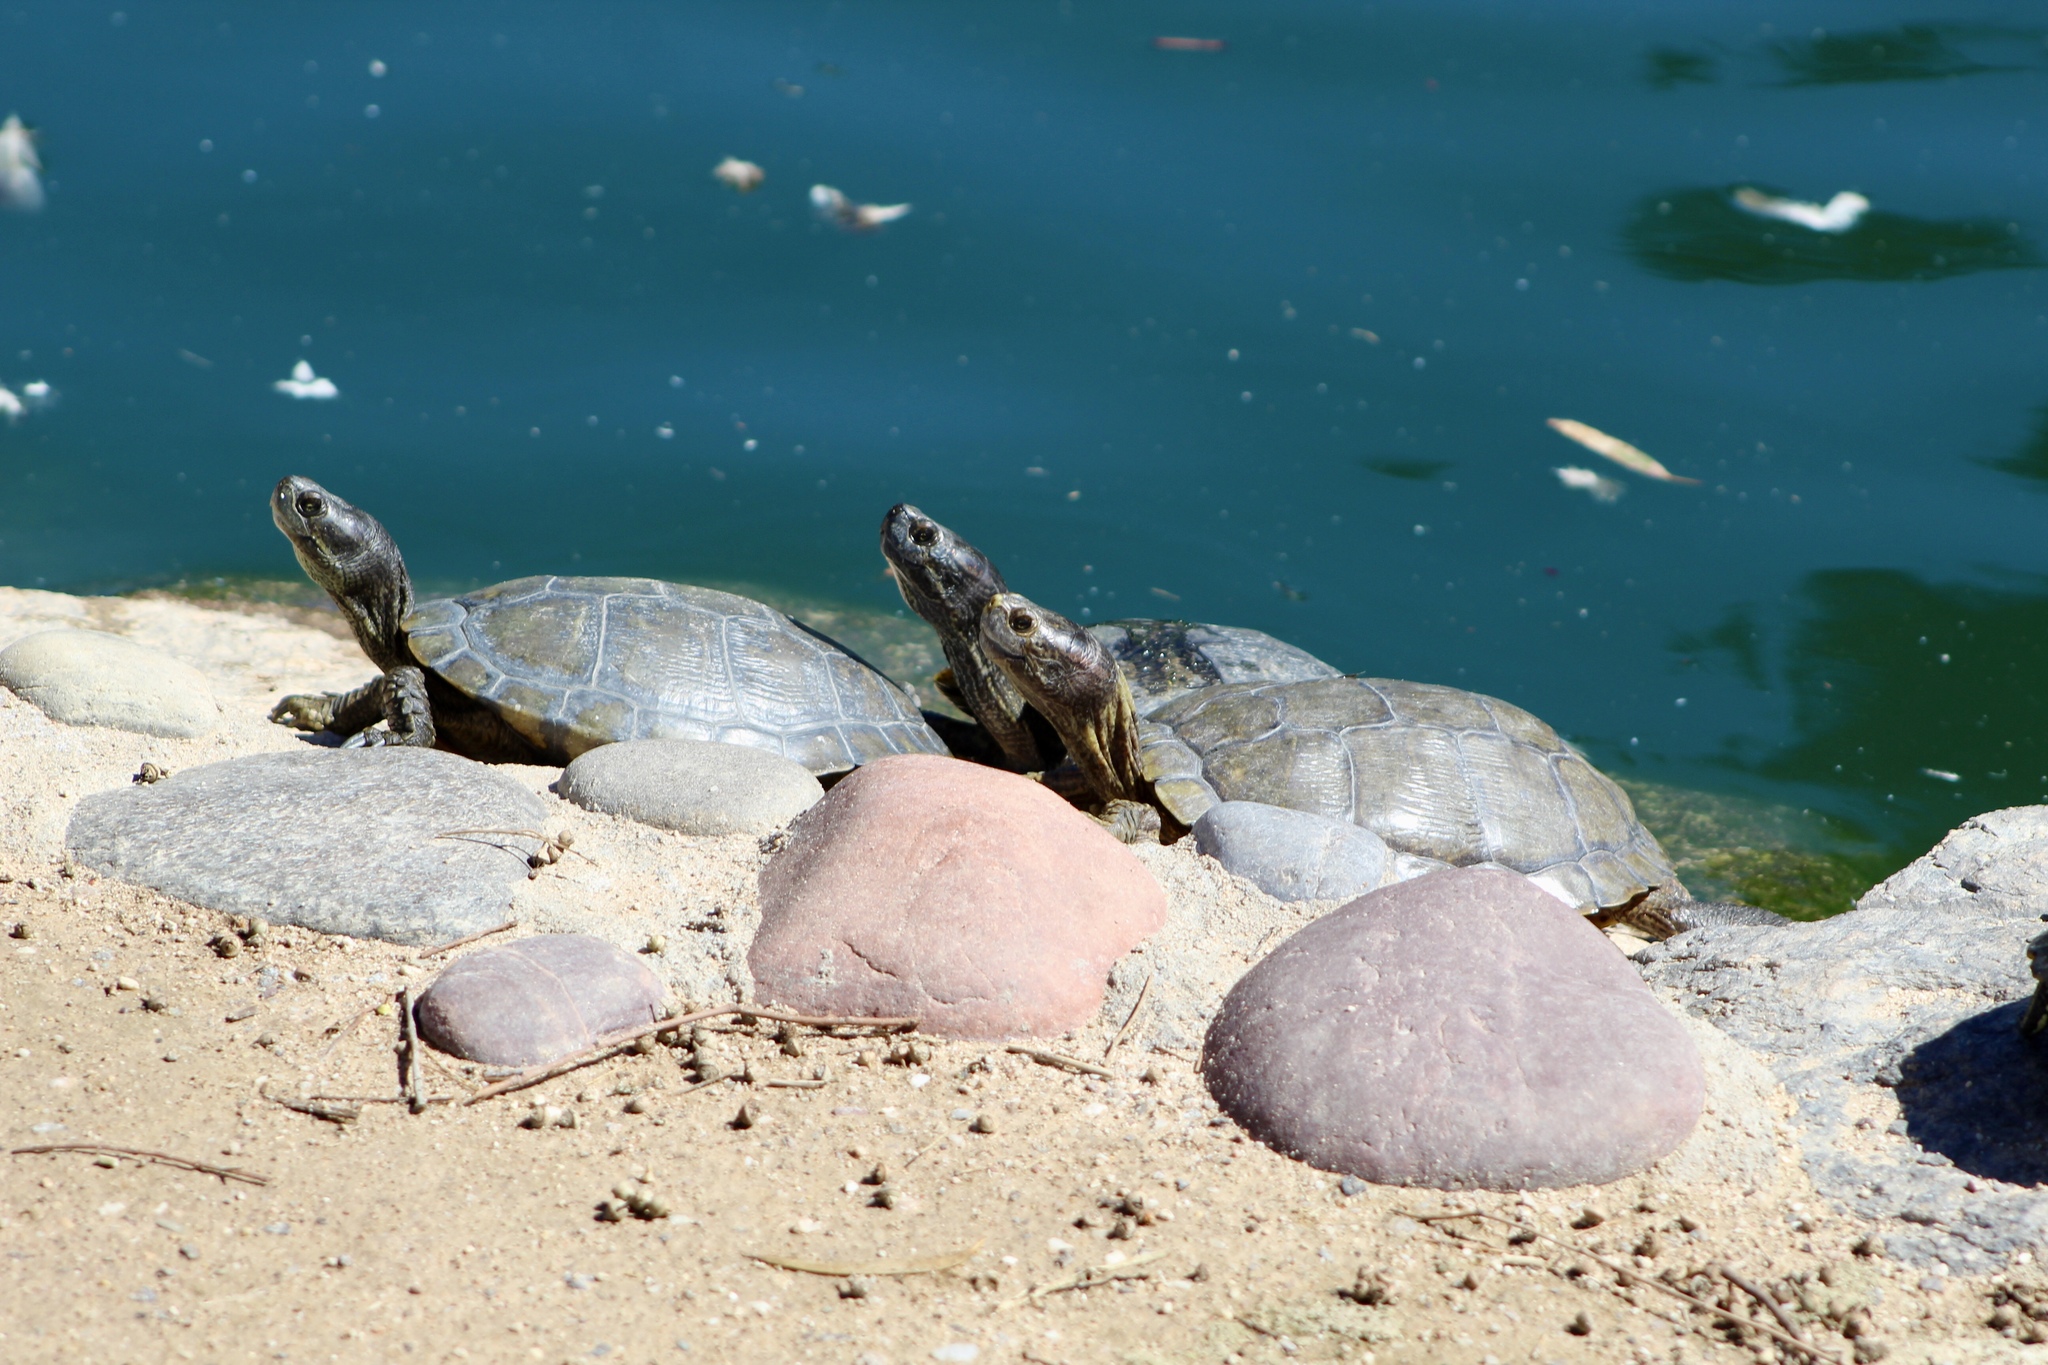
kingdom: Animalia
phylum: Chordata
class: Testudines
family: Emydidae
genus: Trachemys
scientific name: Trachemys scripta
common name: Slider
